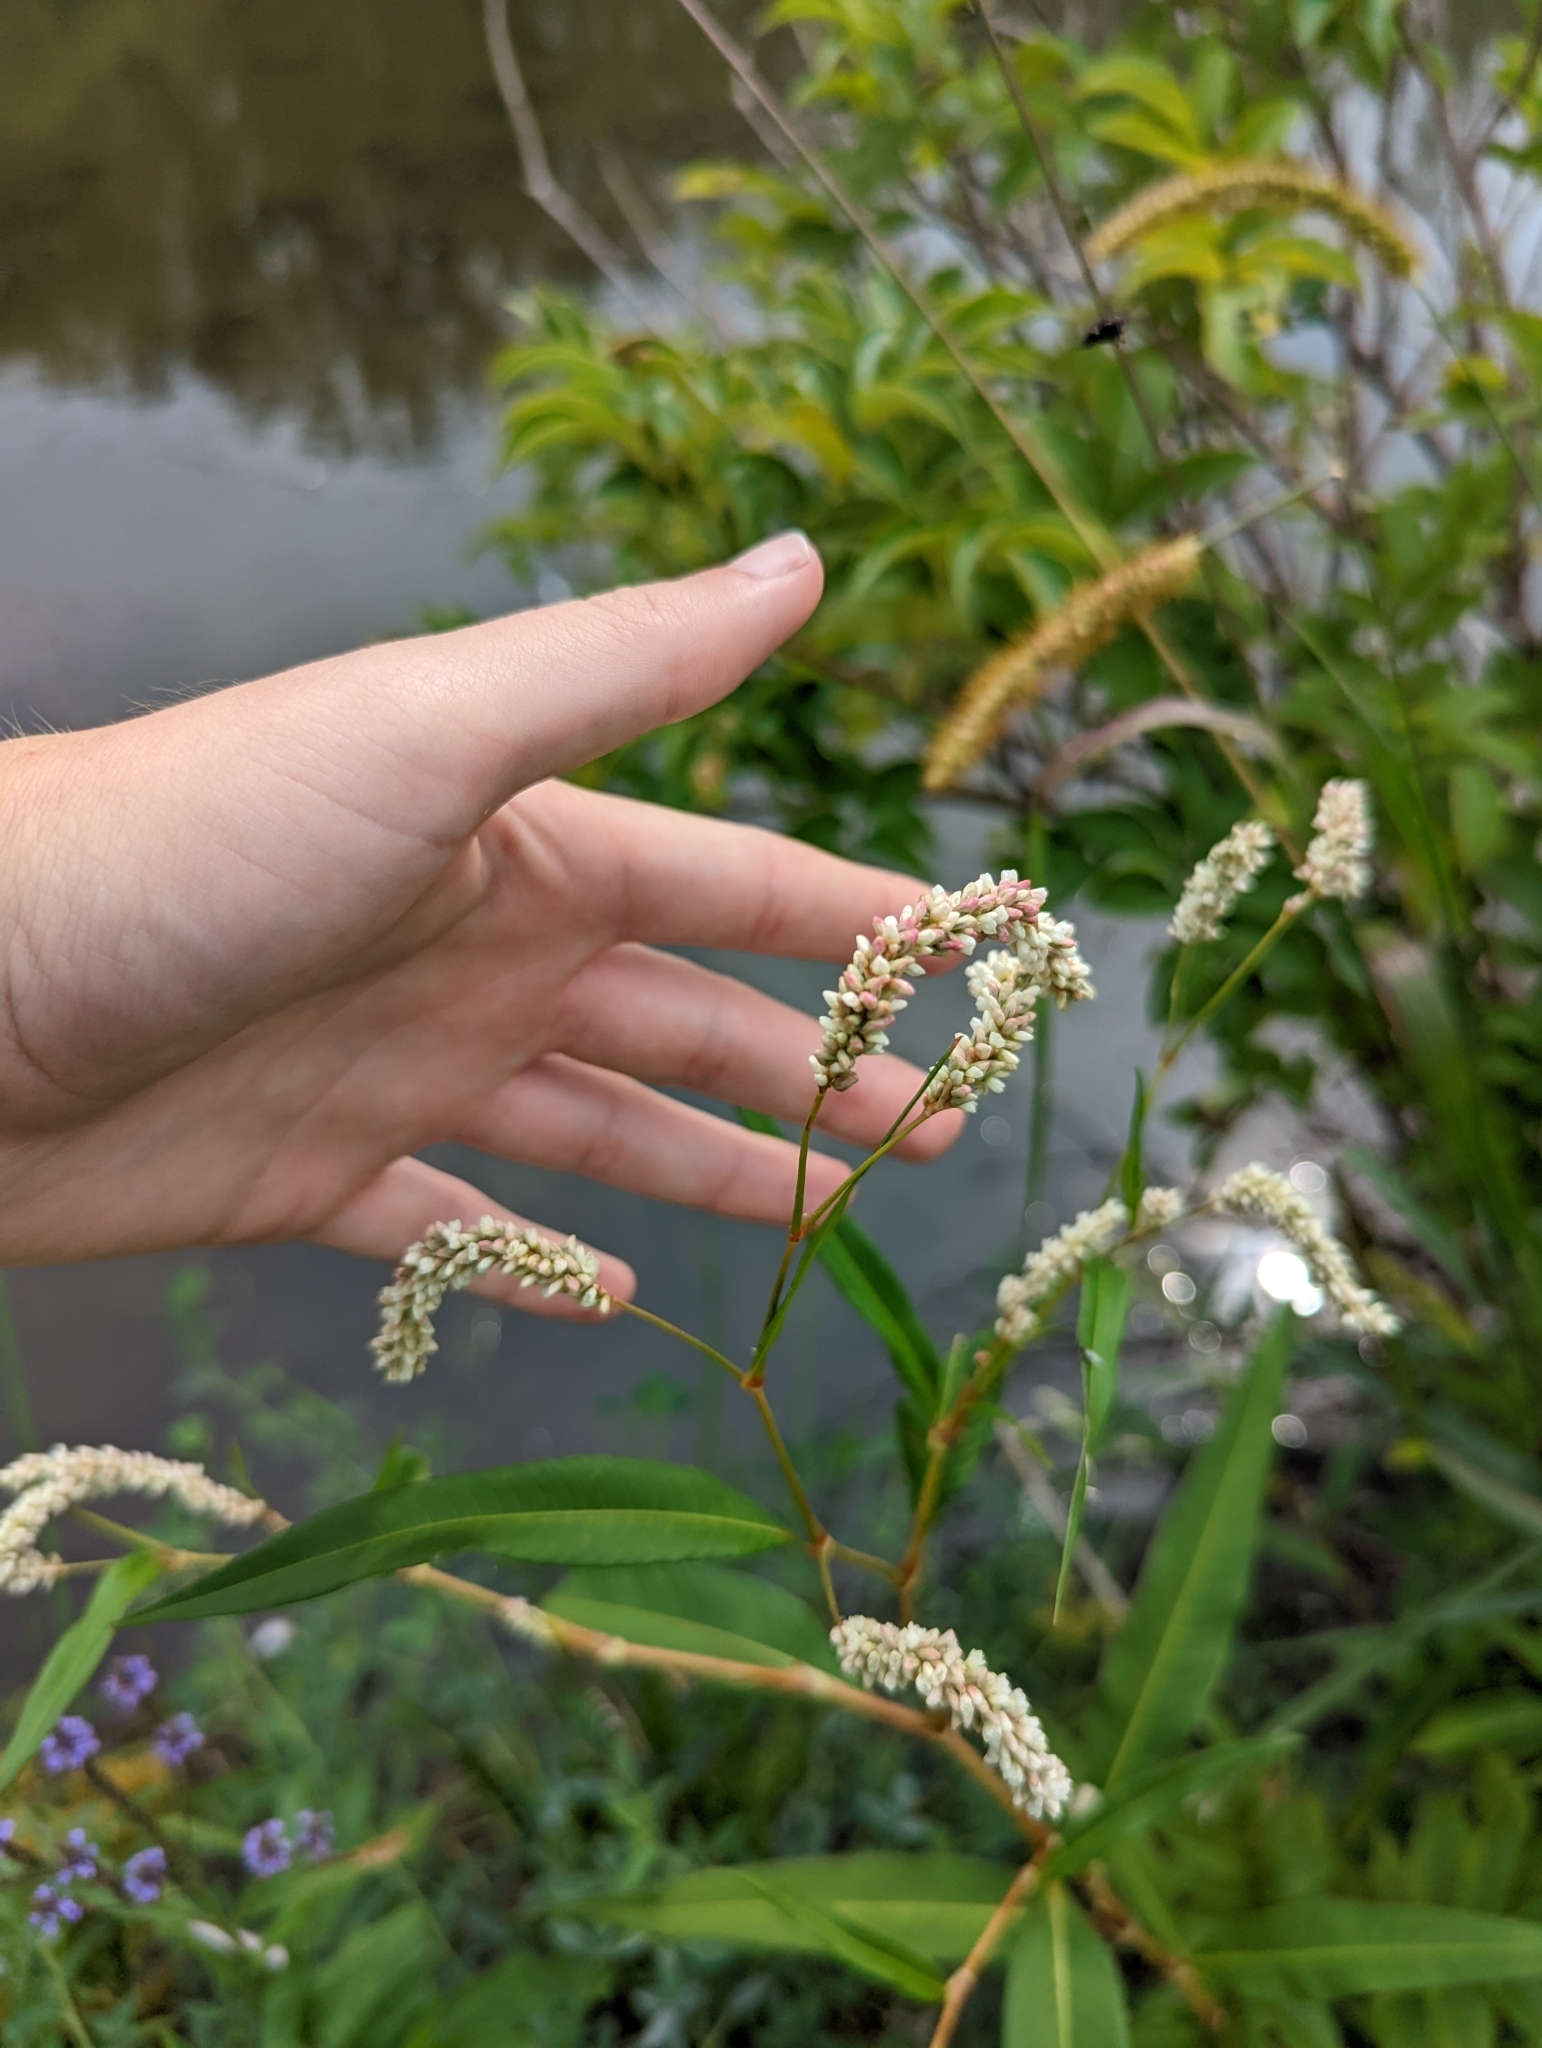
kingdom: Plantae
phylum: Tracheophyta
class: Magnoliopsida
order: Caryophyllales
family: Polygonaceae
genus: Persicaria
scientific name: Persicaria lapathifolia
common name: Curlytop knotweed
